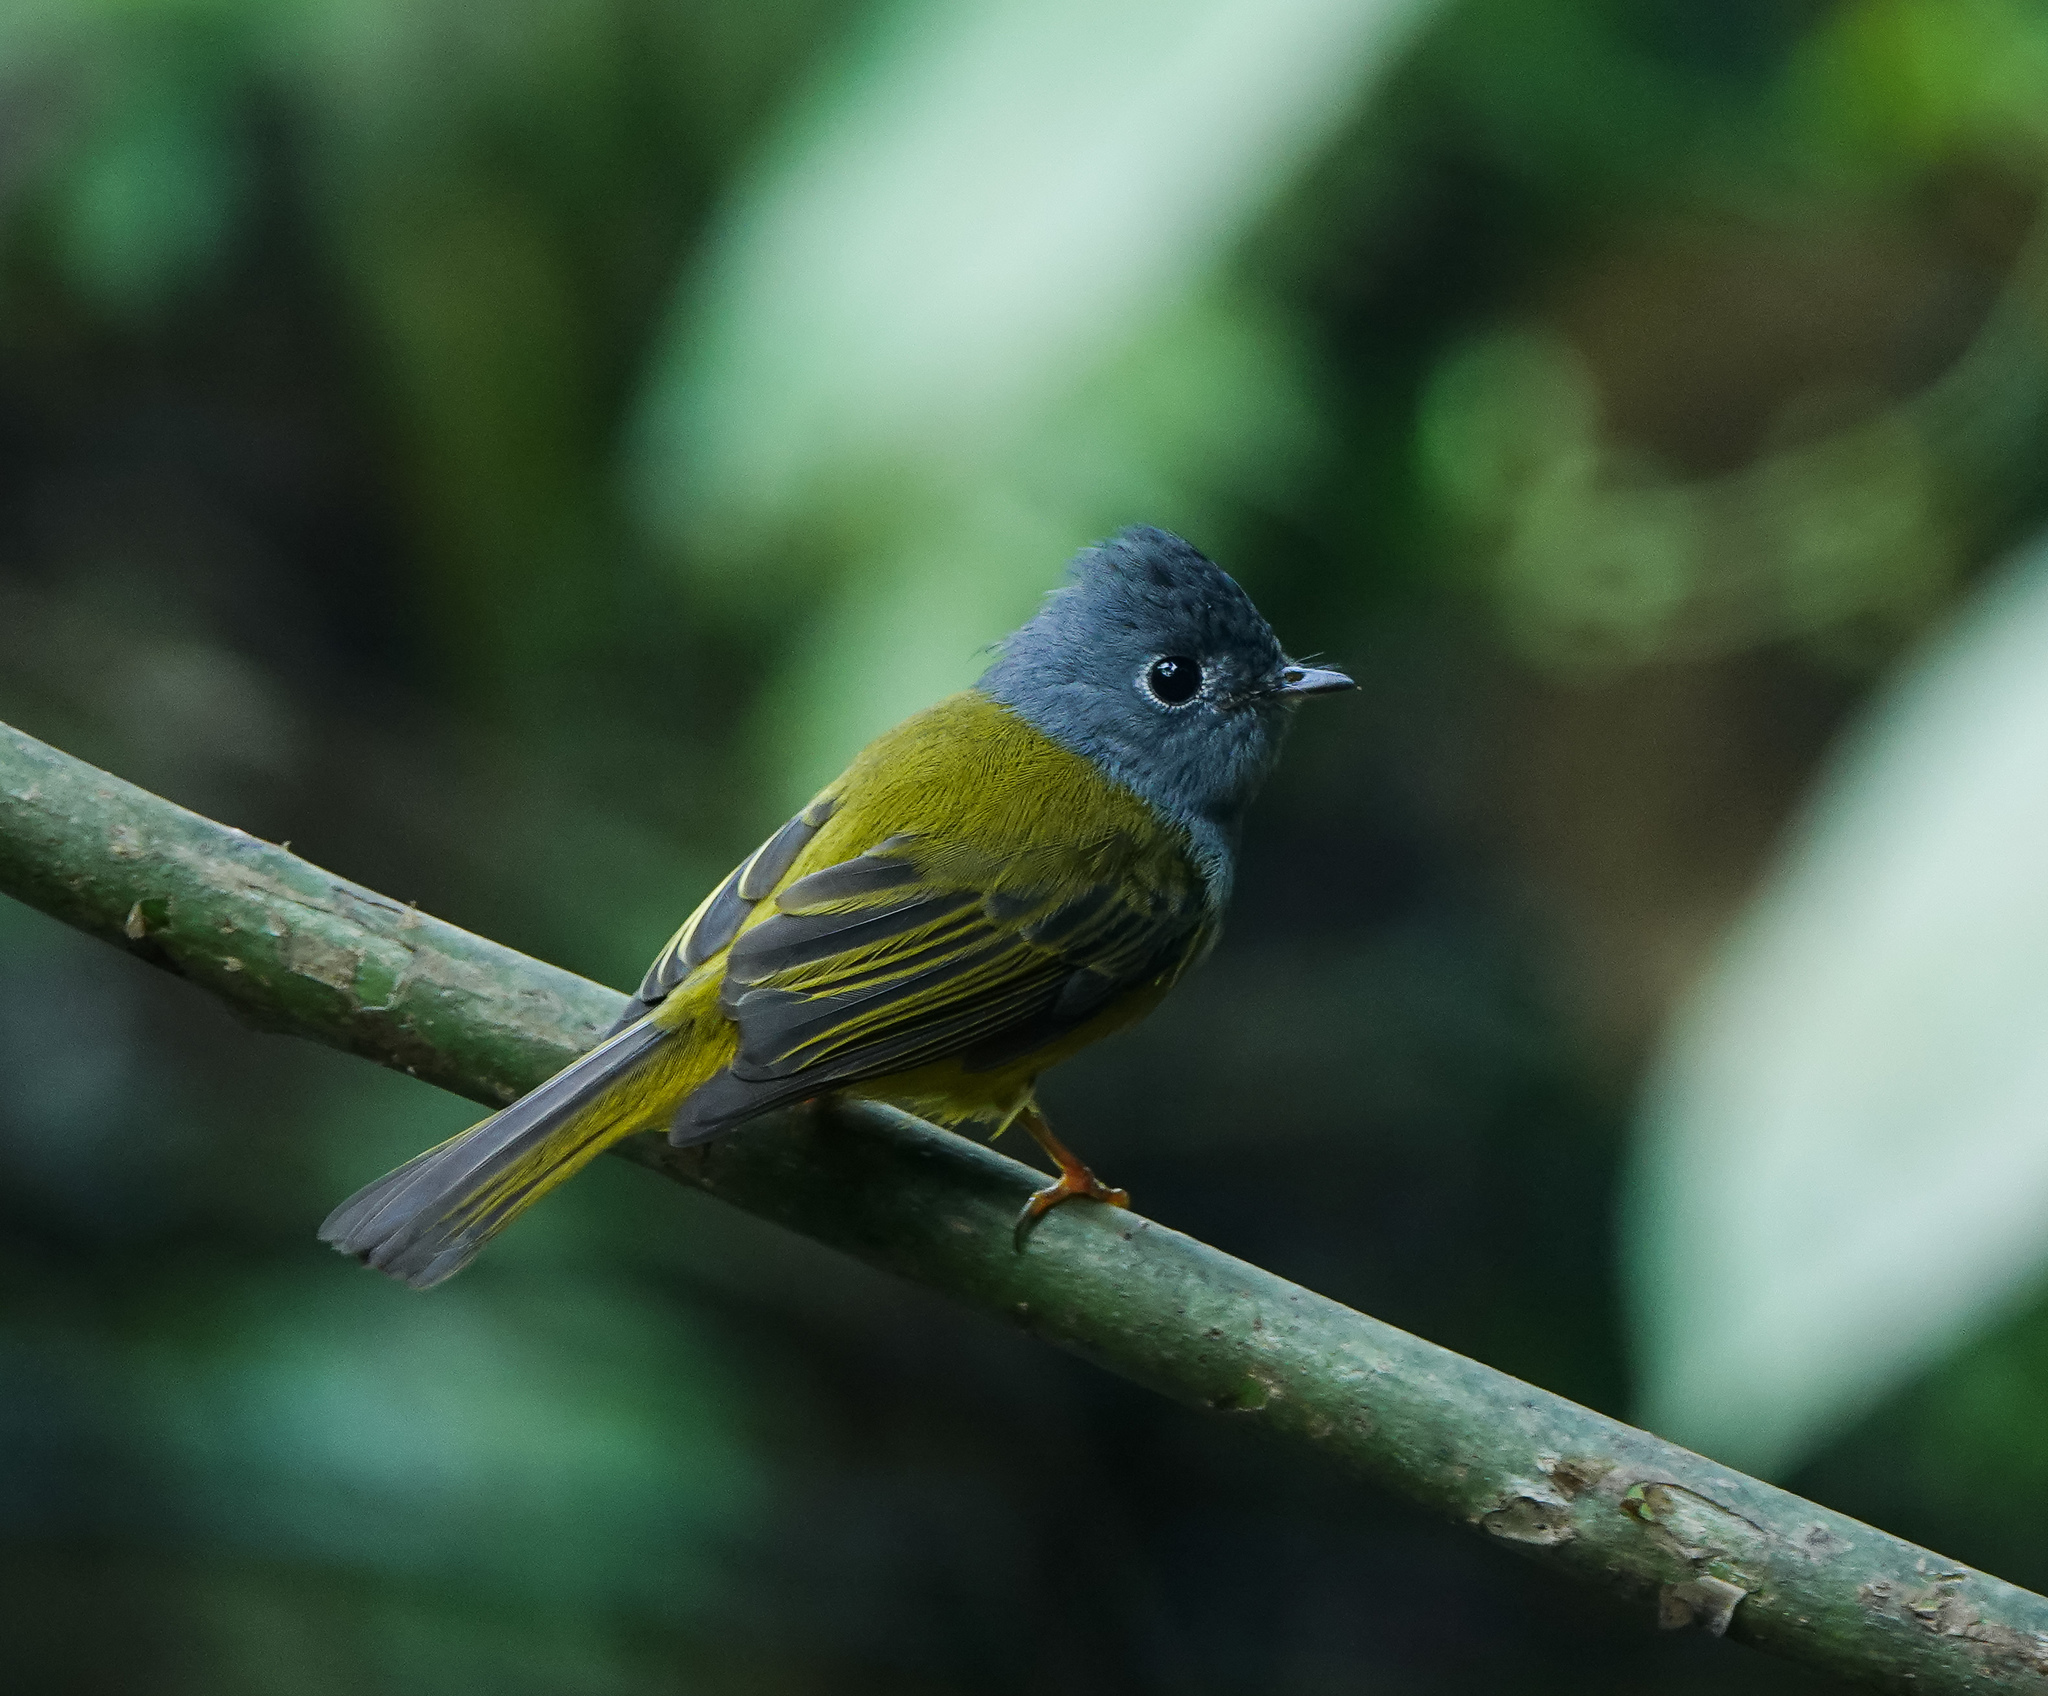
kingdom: Animalia
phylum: Chordata
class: Aves
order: Passeriformes
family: Stenostiridae
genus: Culicicapa
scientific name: Culicicapa ceylonensis
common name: Grey-headed canary-flycatcher
